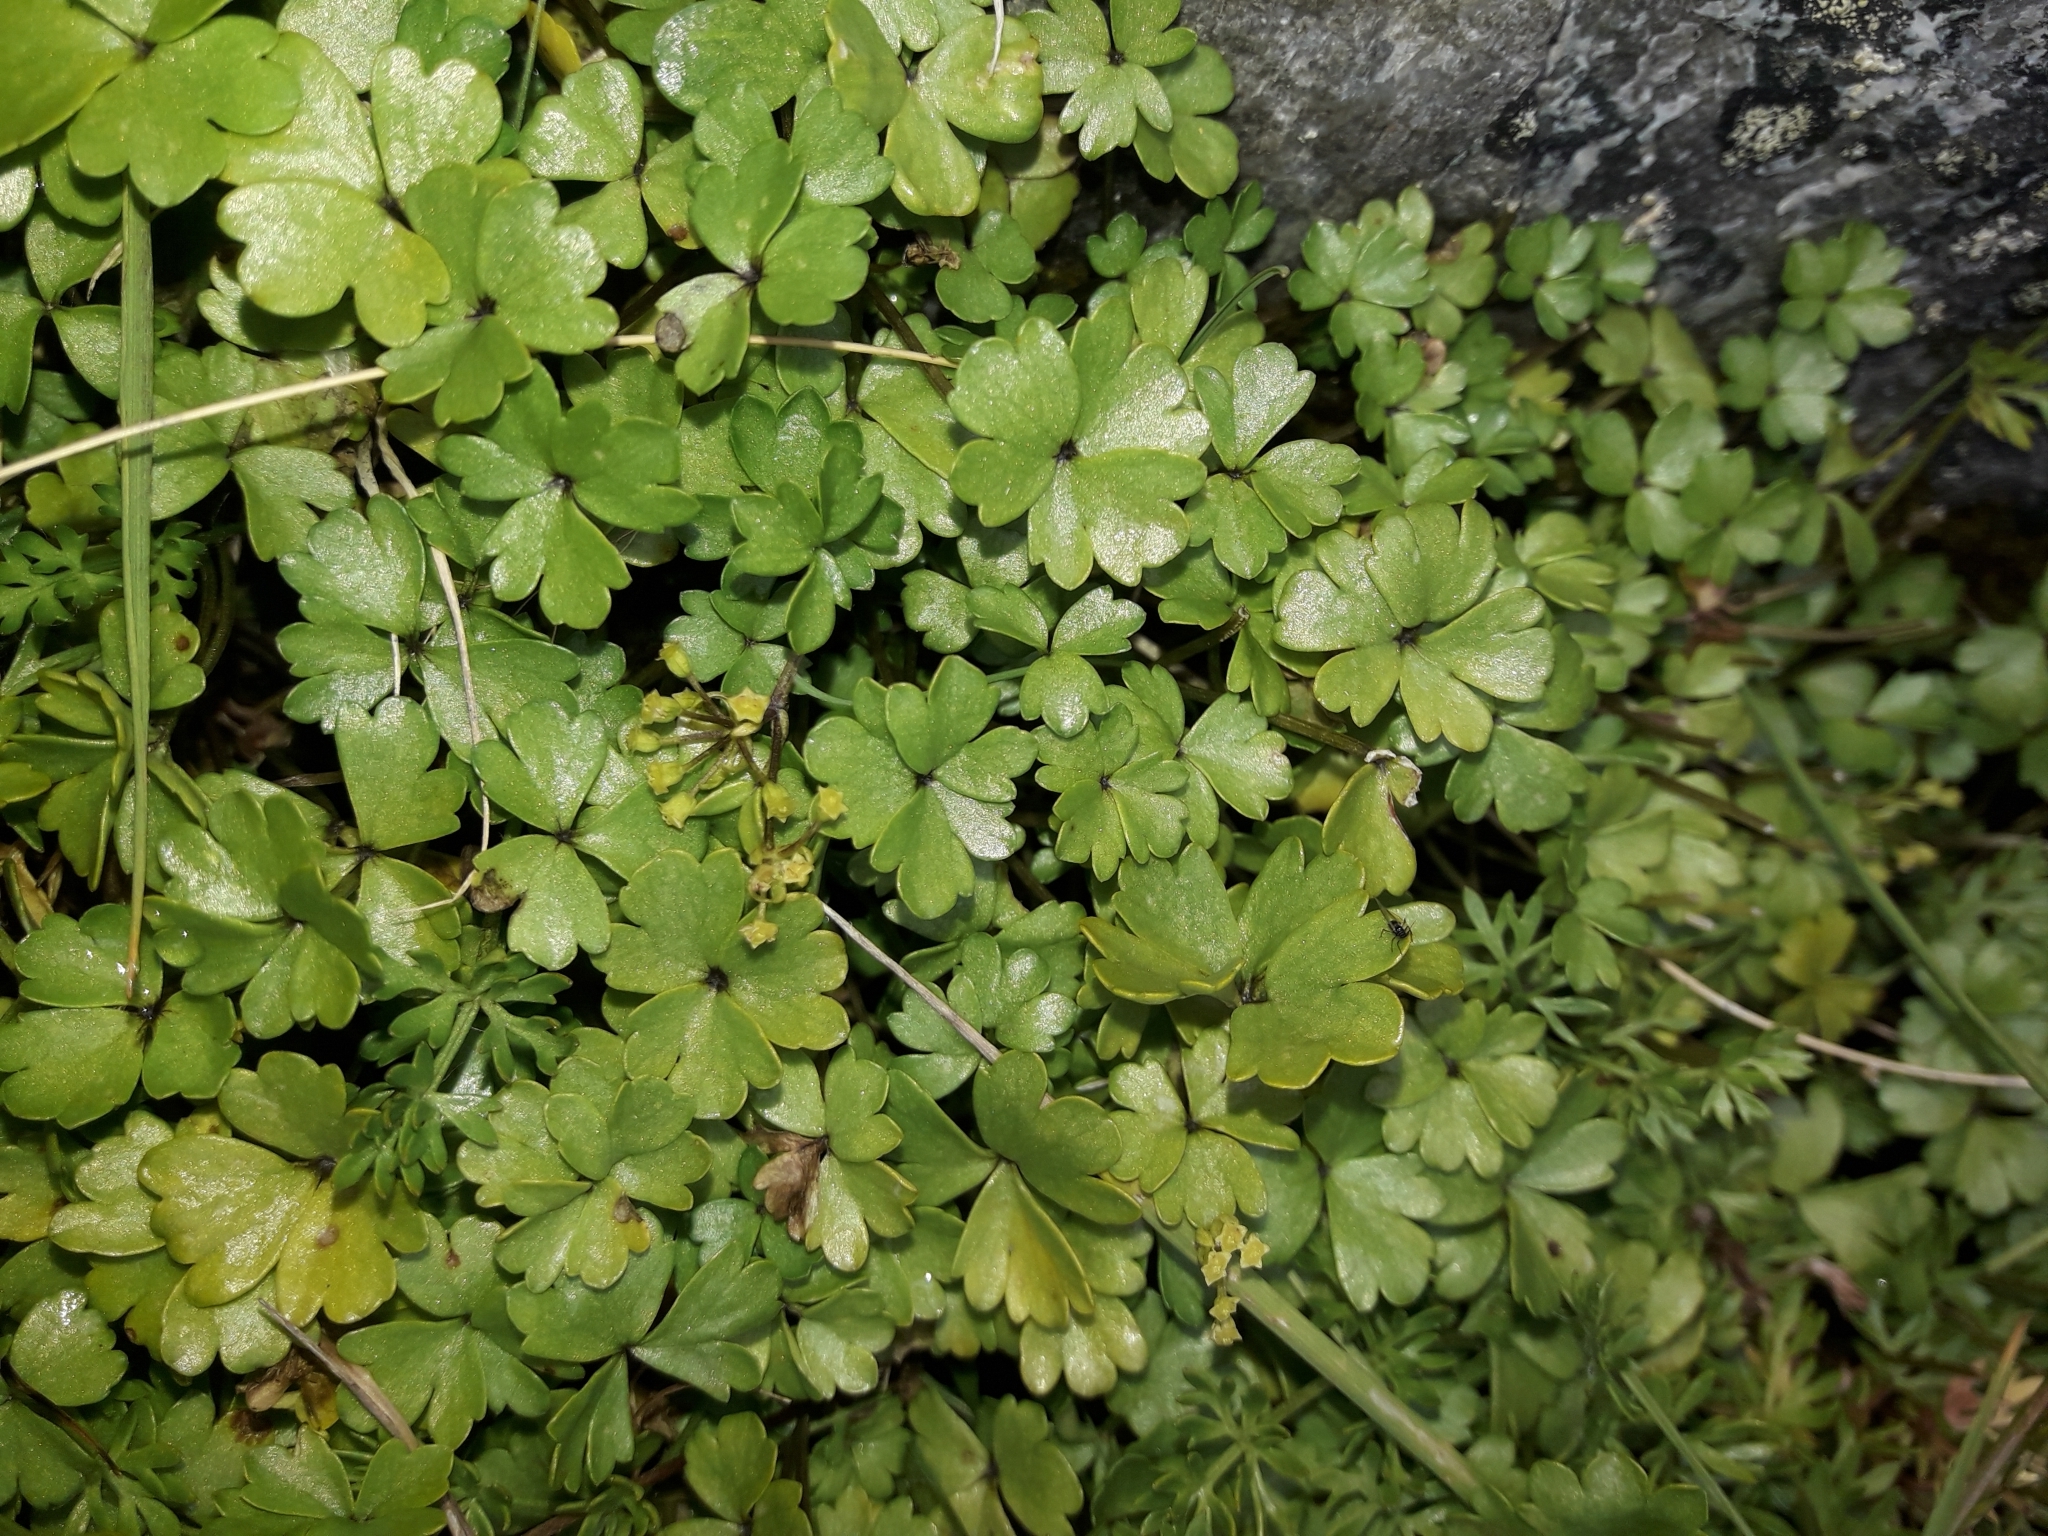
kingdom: Plantae
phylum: Tracheophyta
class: Magnoliopsida
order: Apiales
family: Apiaceae
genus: Azorella
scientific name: Azorella pallida
